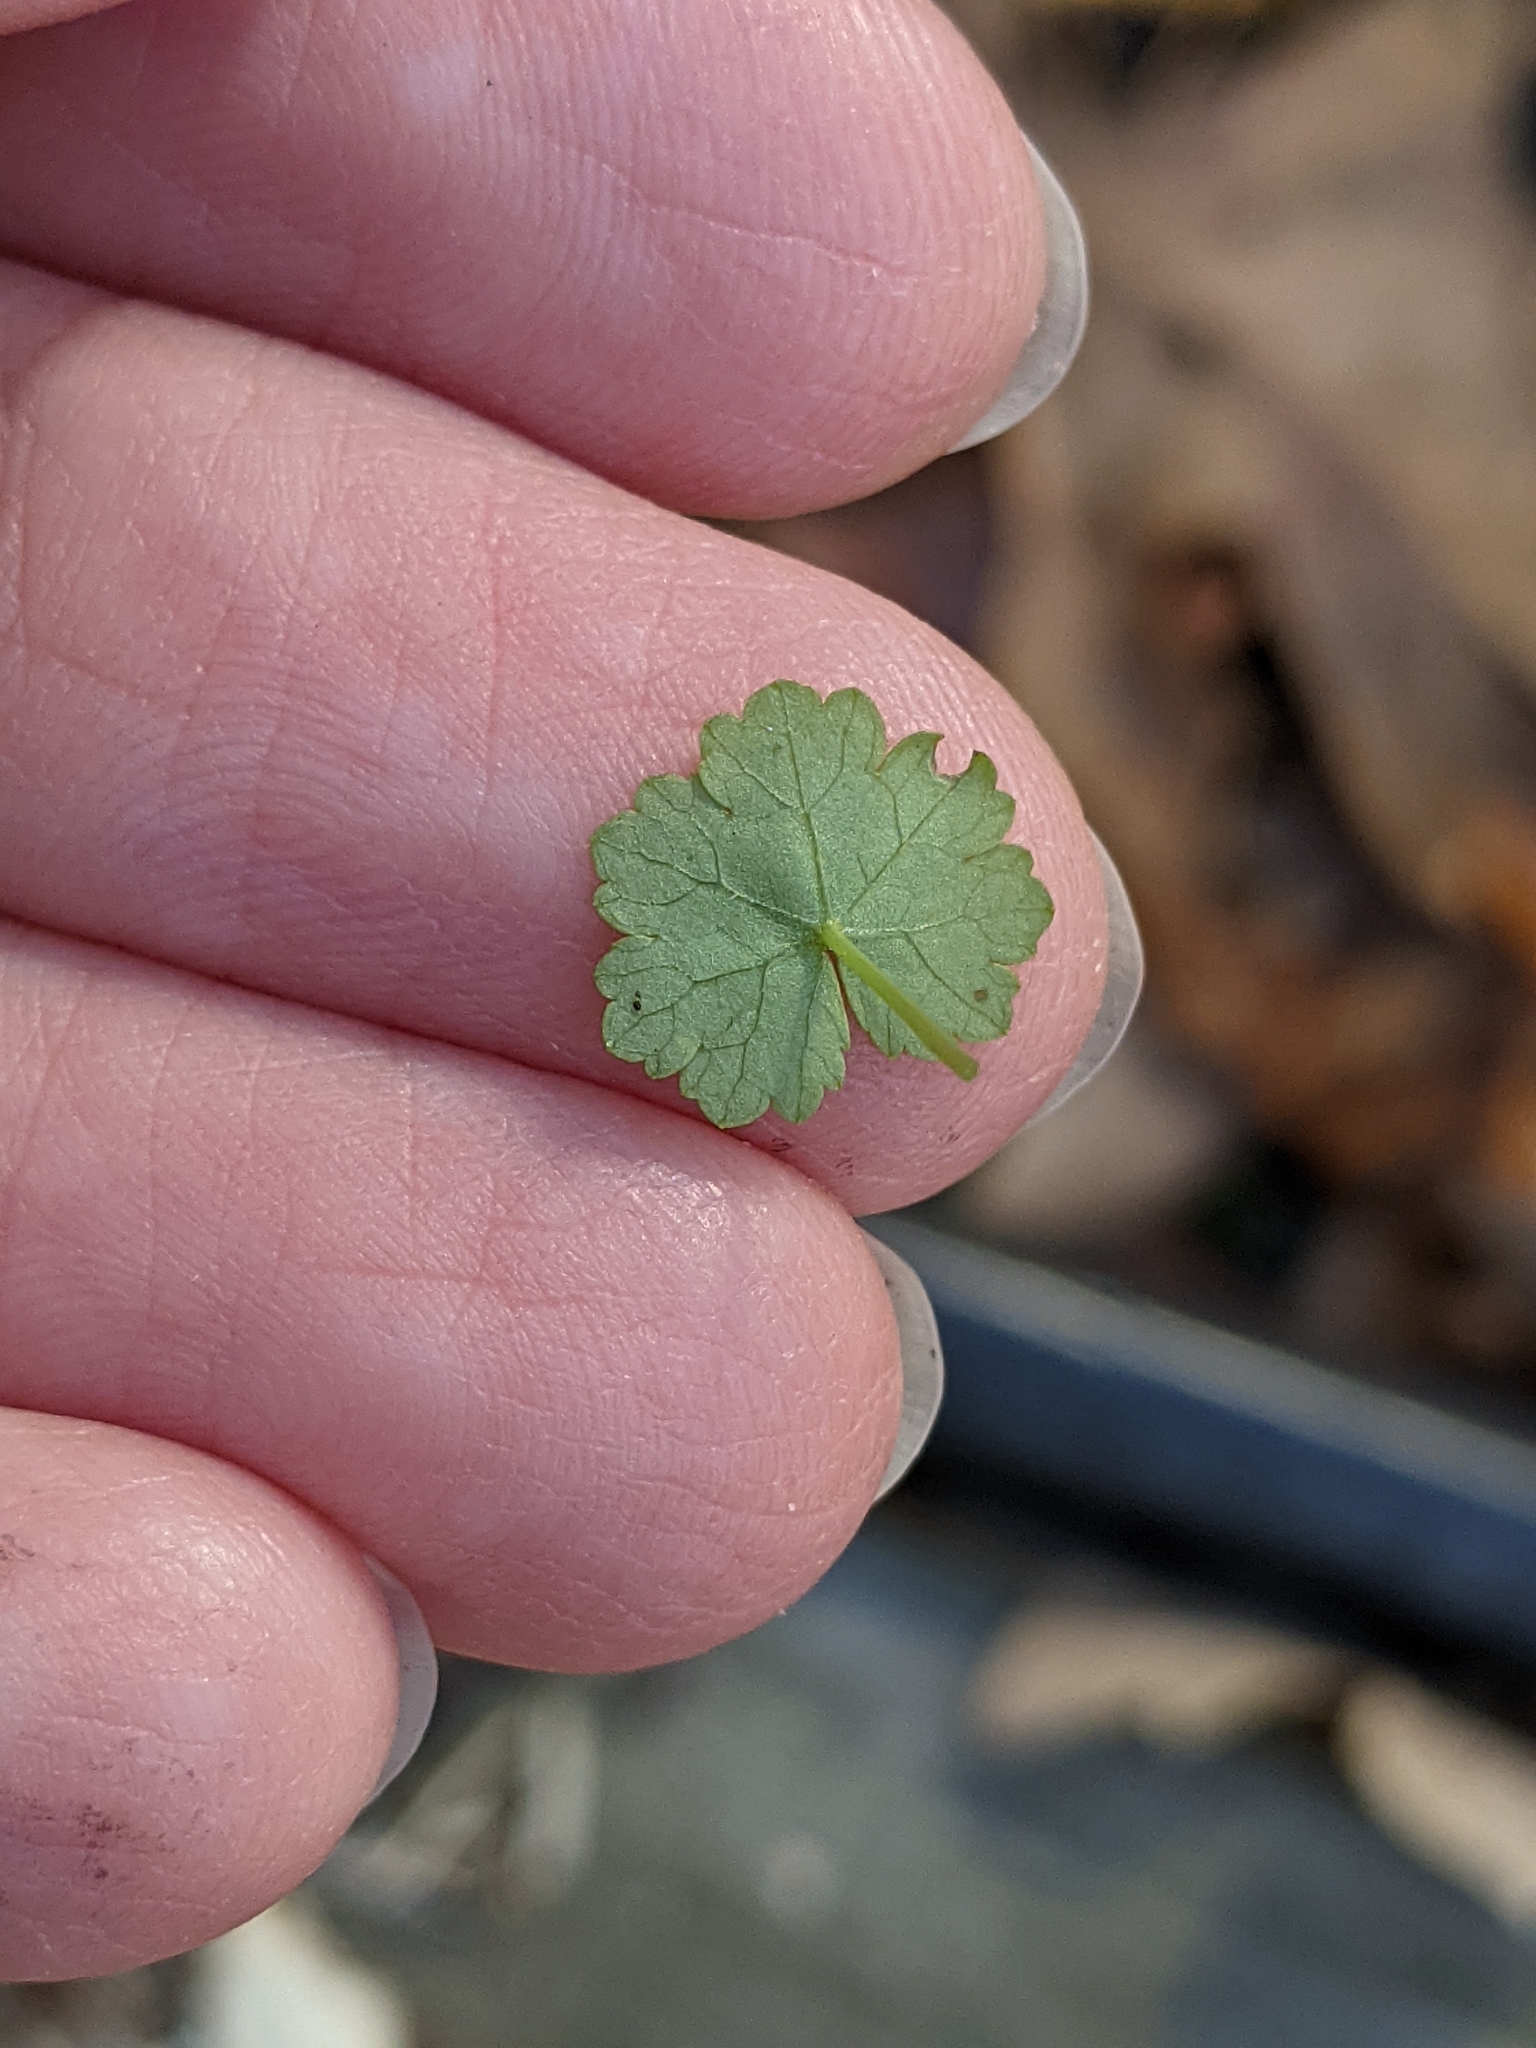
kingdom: Plantae
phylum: Tracheophyta
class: Magnoliopsida
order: Apiales
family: Araliaceae
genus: Hydrocotyle
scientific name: Hydrocotyle sibthorpioides
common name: Lawn marshpennywort
